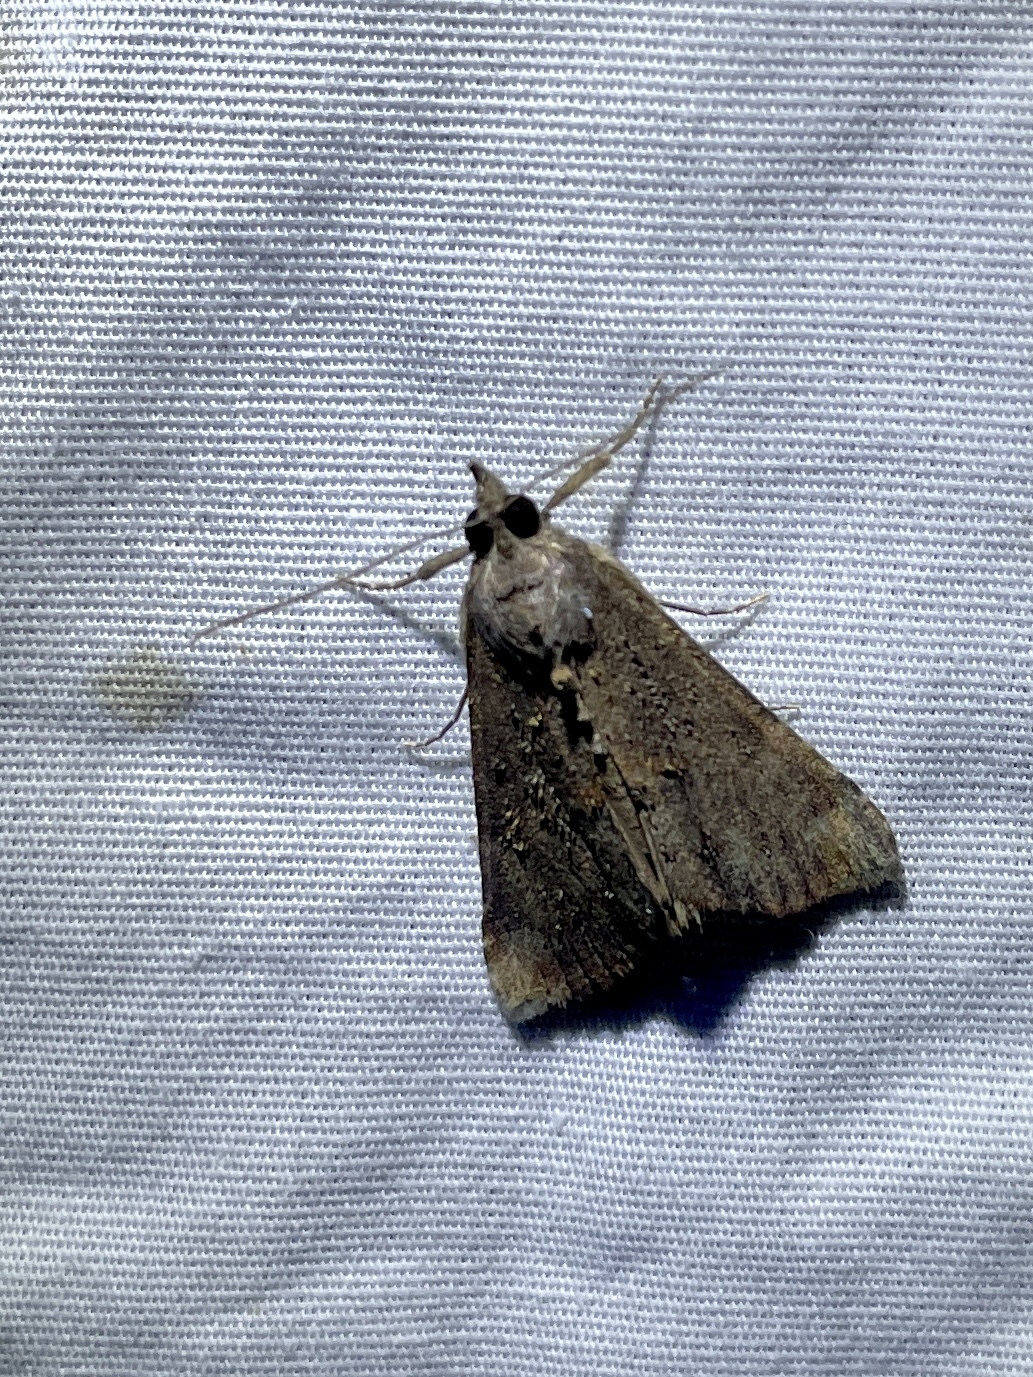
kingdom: Animalia
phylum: Arthropoda
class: Insecta
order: Lepidoptera
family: Erebidae
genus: Hypena
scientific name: Hypena scabra
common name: Green cloverworm
